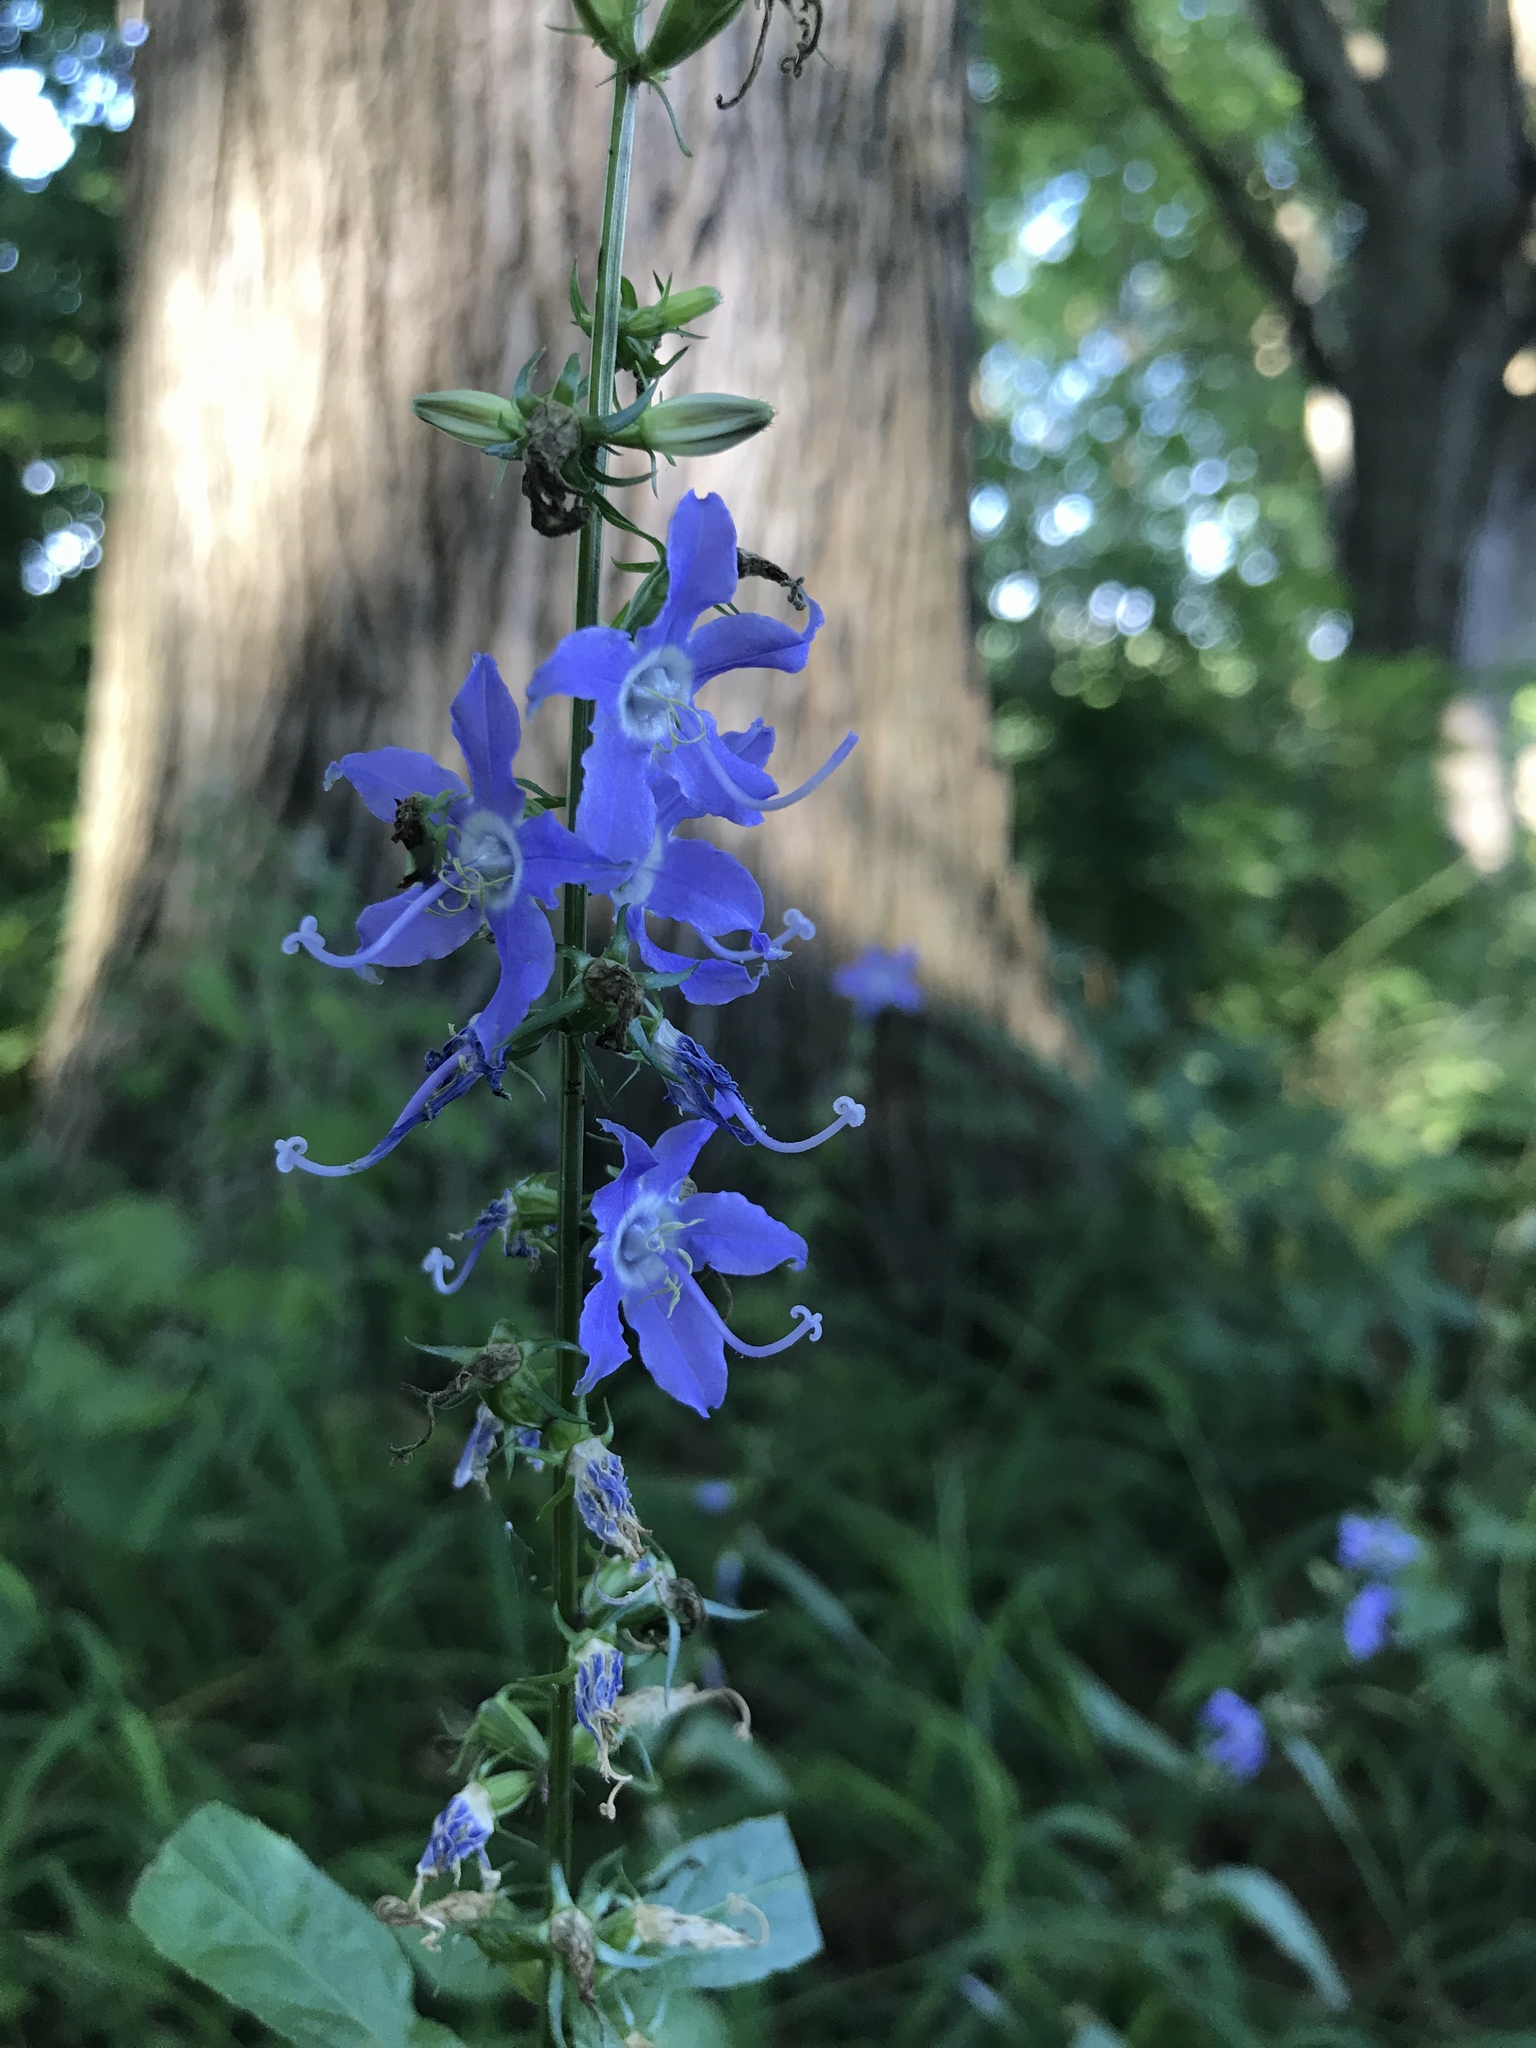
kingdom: Plantae
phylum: Tracheophyta
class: Magnoliopsida
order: Asterales
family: Campanulaceae
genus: Campanulastrum
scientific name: Campanulastrum americanum
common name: American bellflower
